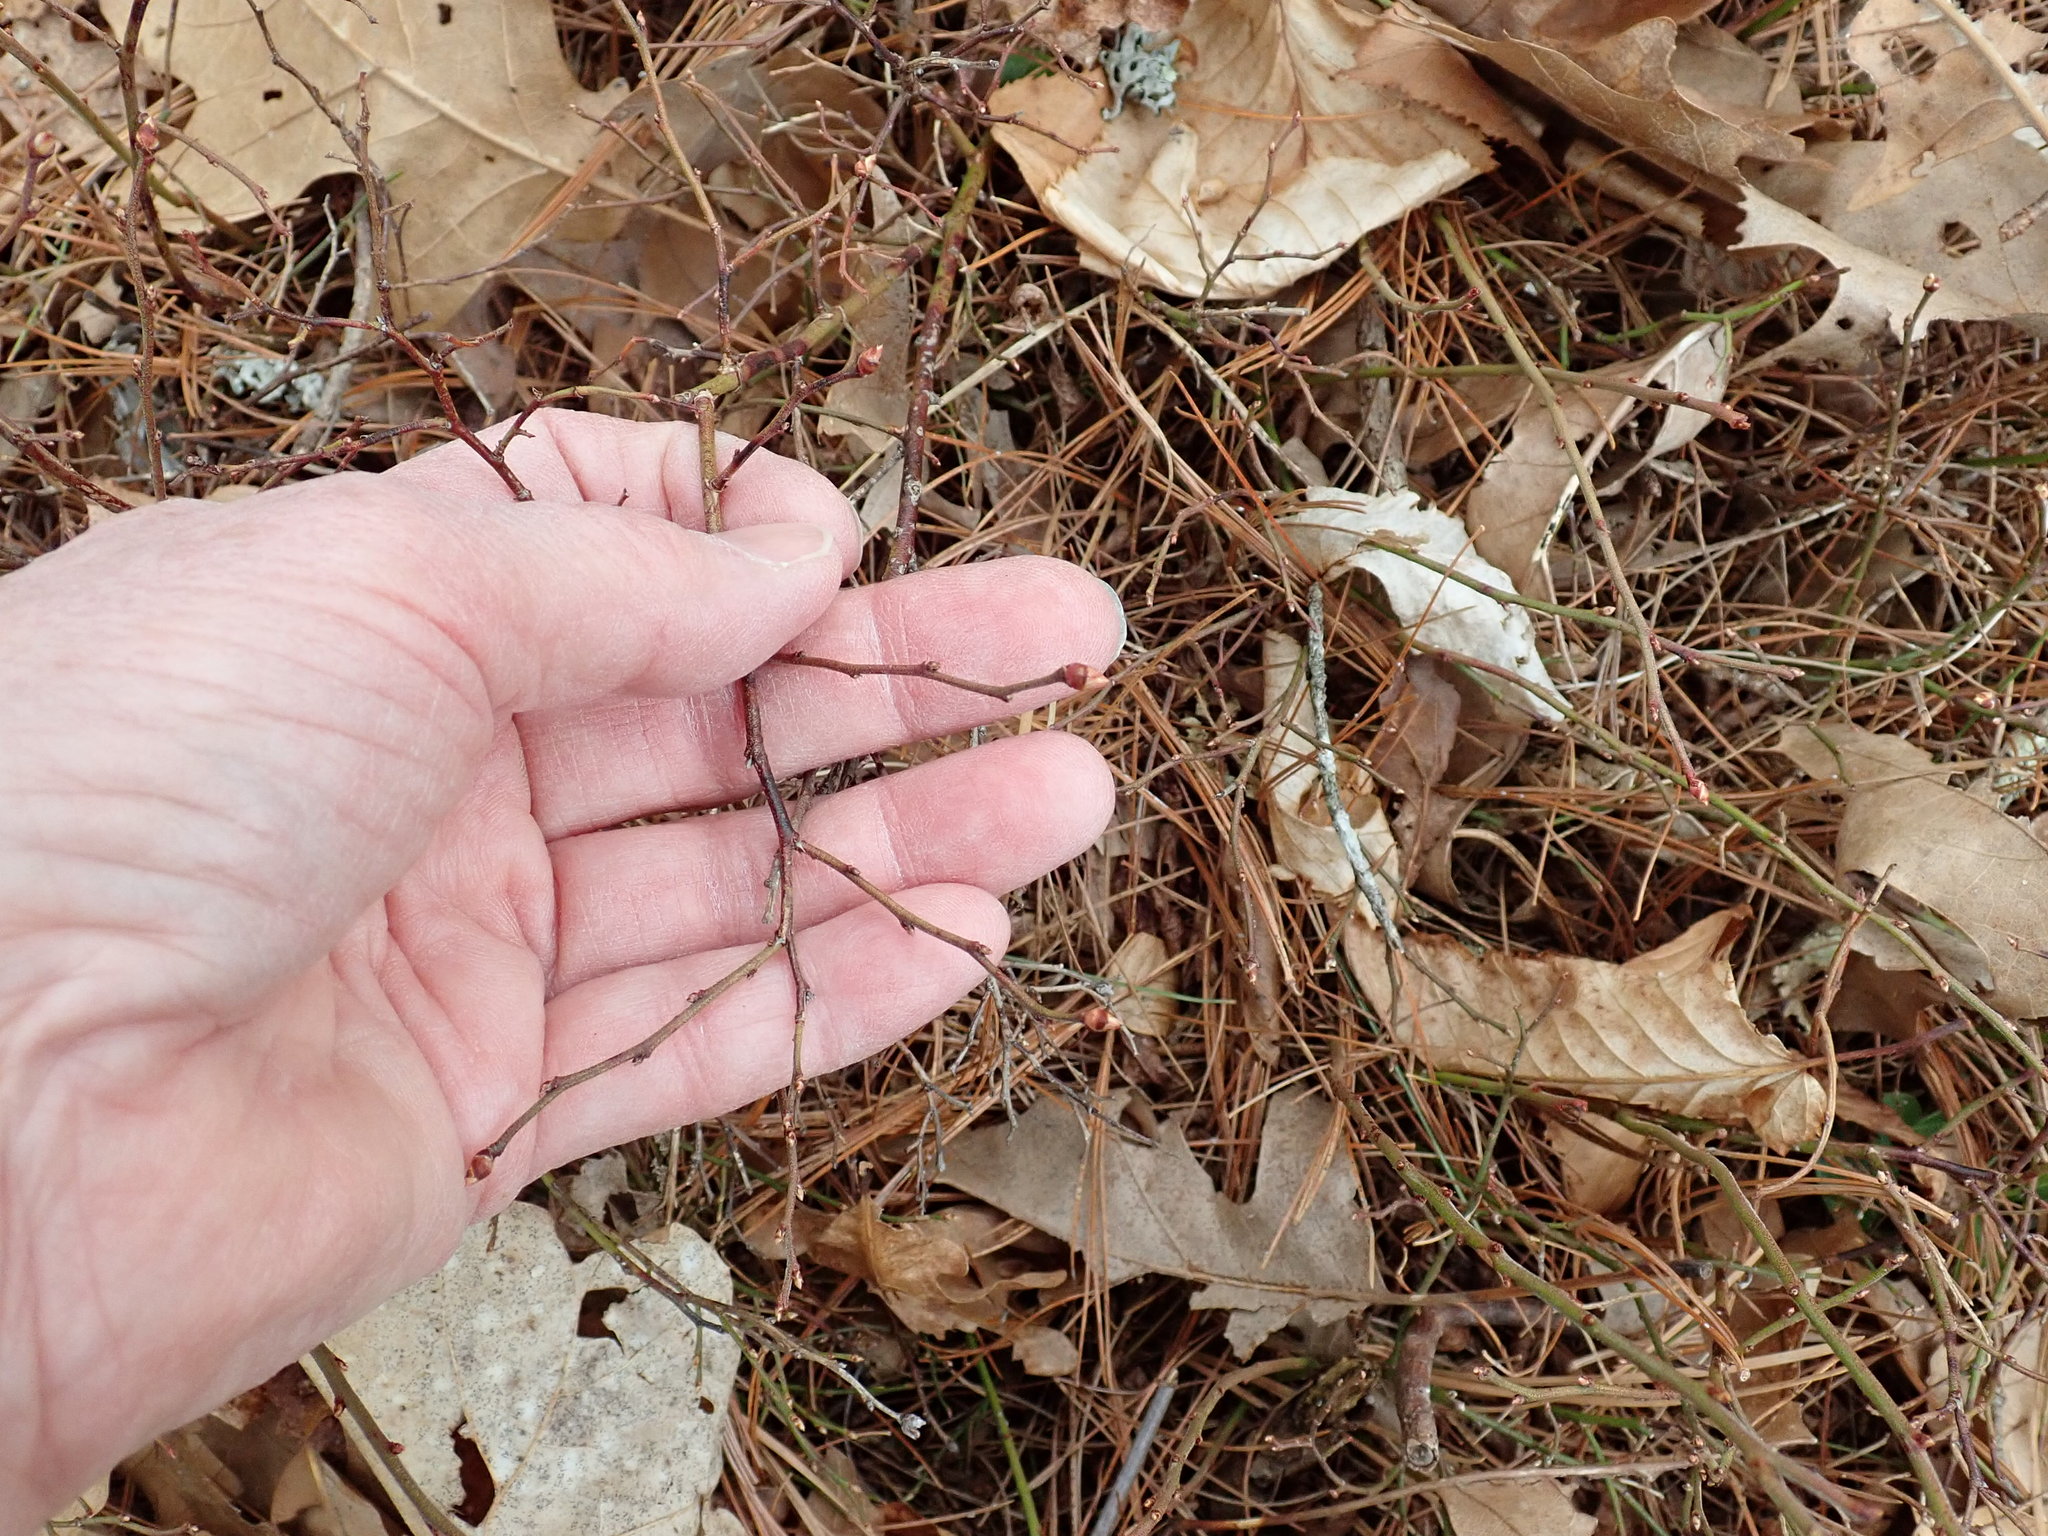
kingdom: Plantae
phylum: Tracheophyta
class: Magnoliopsida
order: Ericales
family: Ericaceae
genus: Vaccinium
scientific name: Vaccinium angustifolium
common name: Early lowbush blueberry
